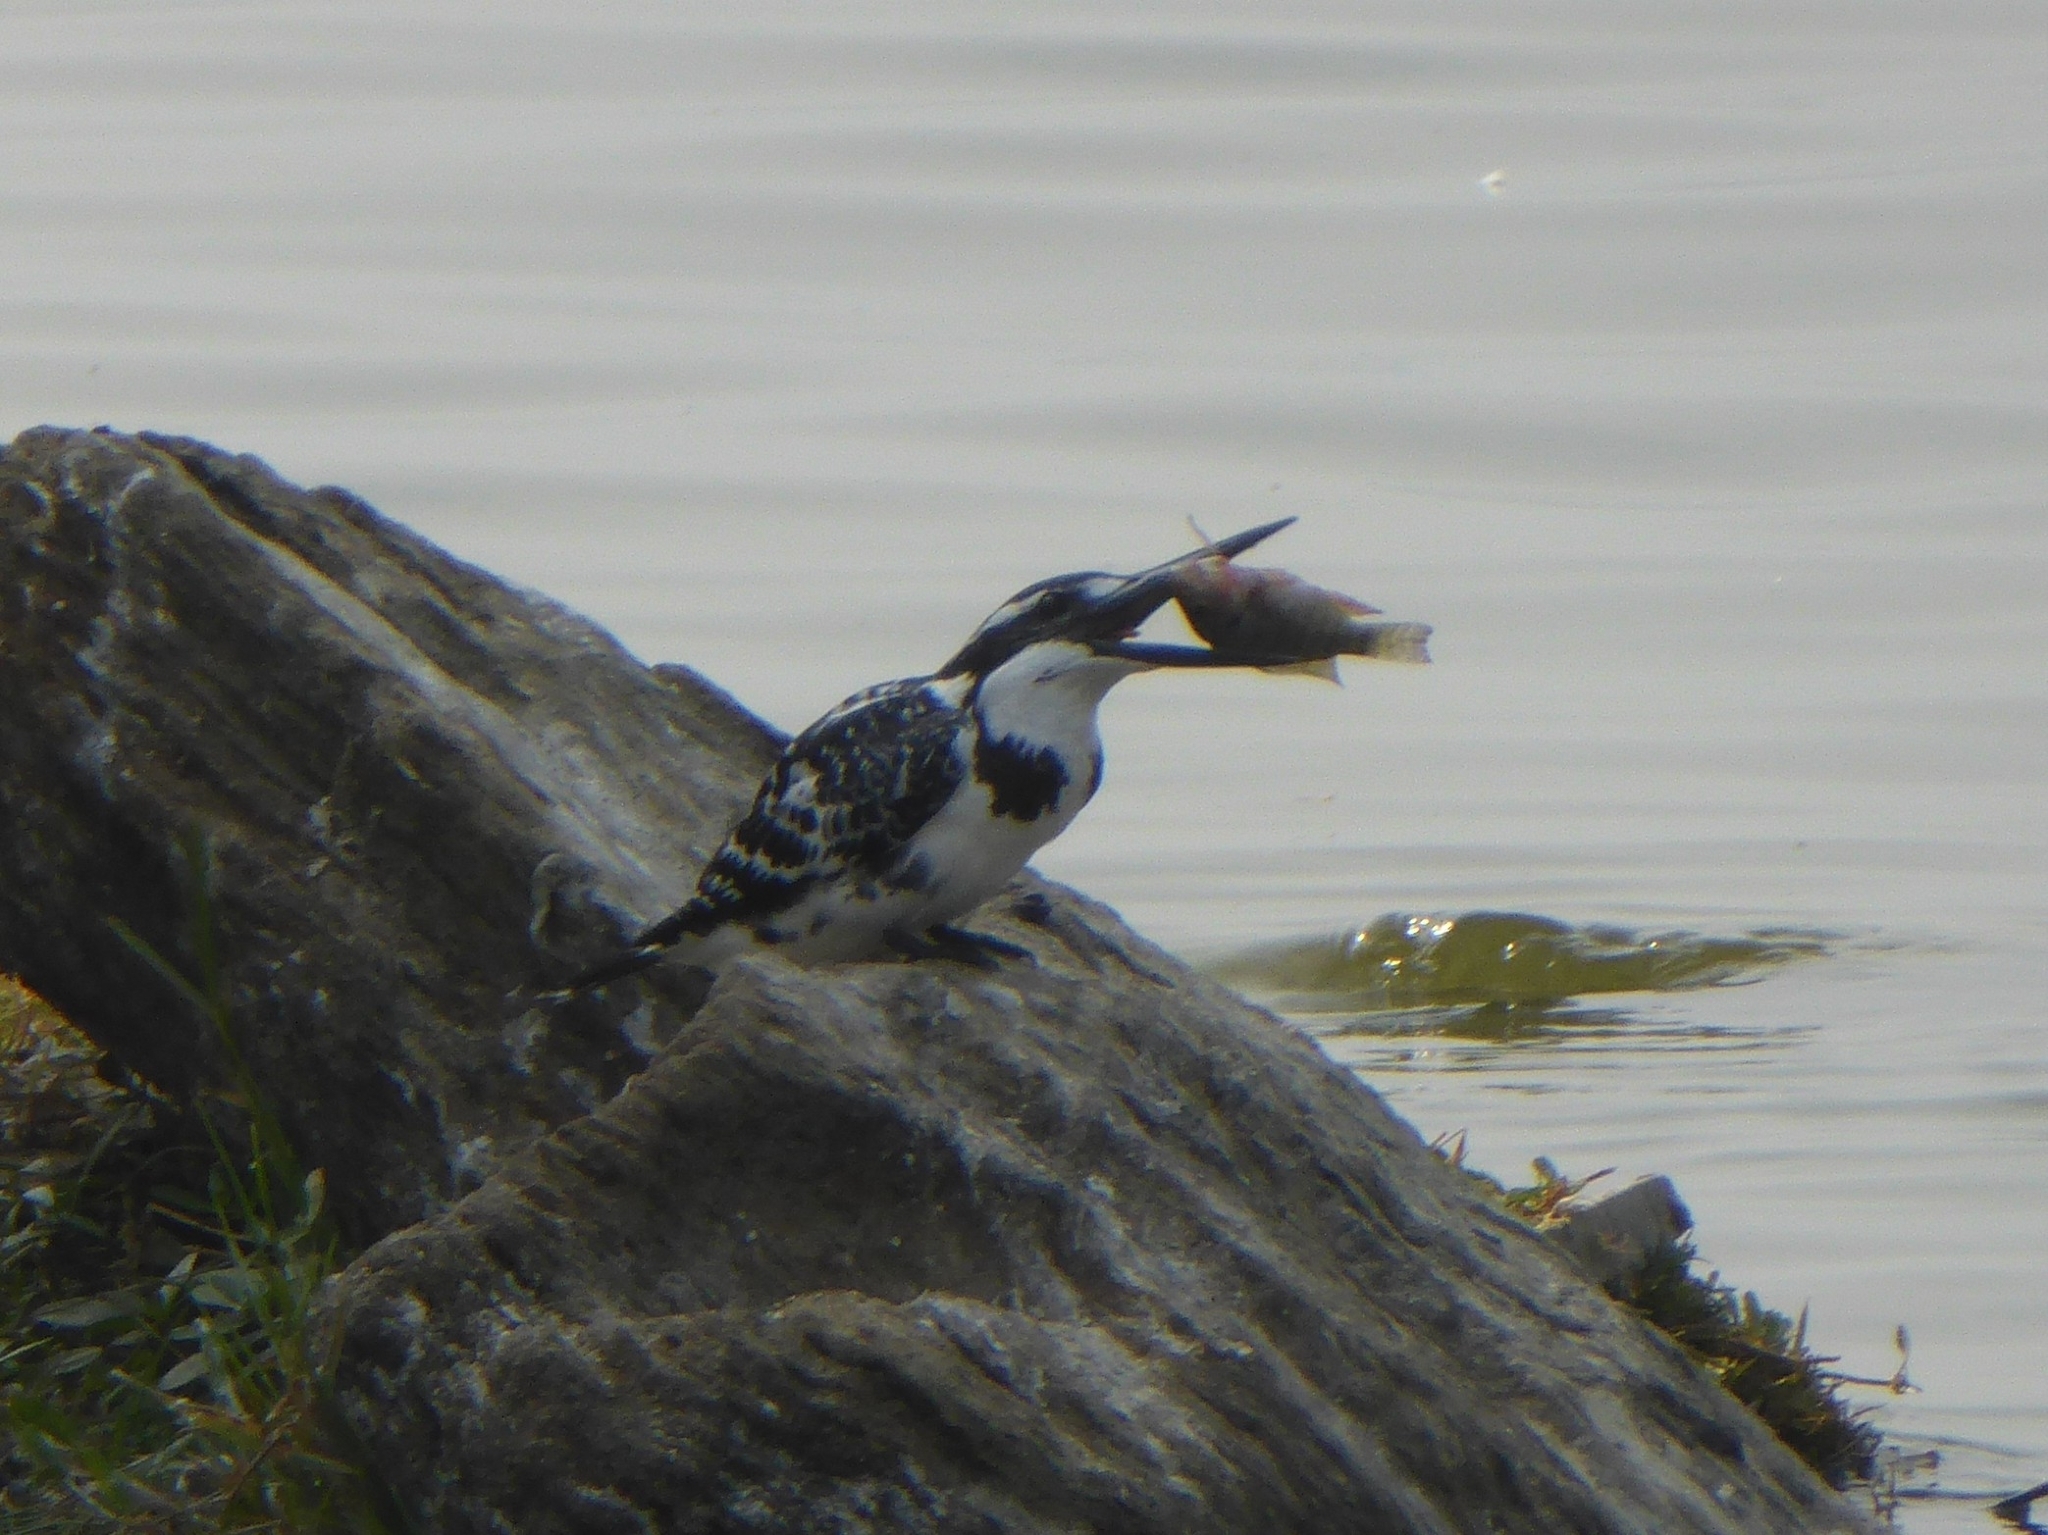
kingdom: Animalia
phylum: Chordata
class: Aves
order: Coraciiformes
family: Alcedinidae
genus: Ceryle
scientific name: Ceryle rudis
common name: Pied kingfisher
